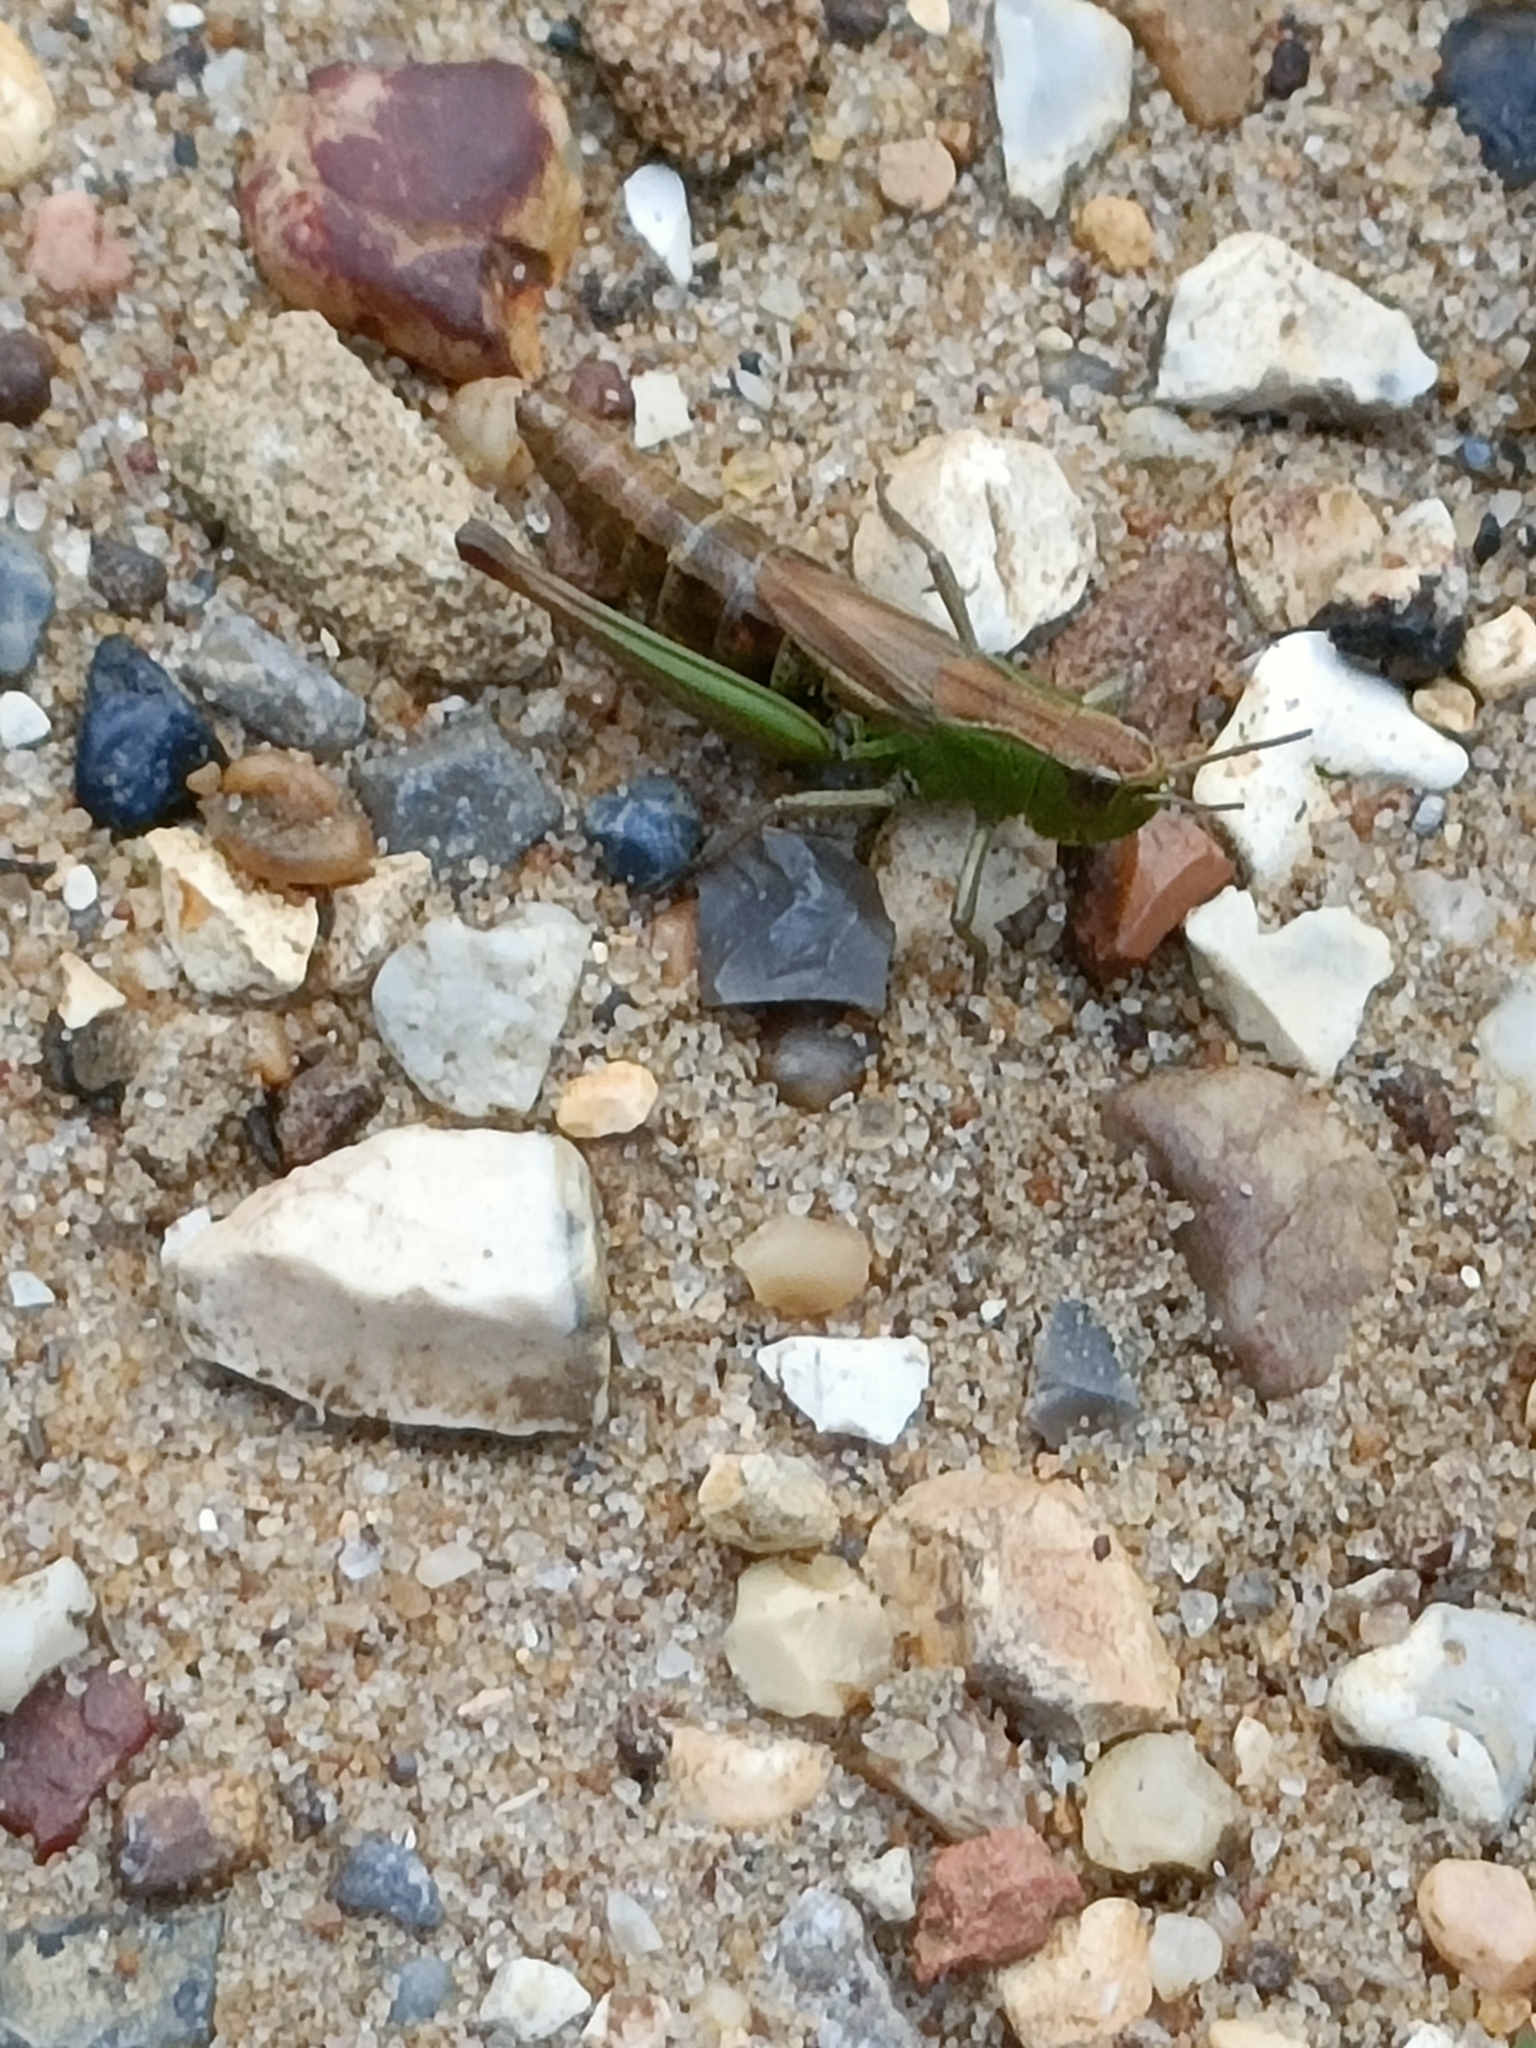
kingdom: Animalia
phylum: Arthropoda
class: Insecta
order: Orthoptera
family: Acrididae
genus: Pseudochorthippus
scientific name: Pseudochorthippus parallelus
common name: Meadow grasshopper
